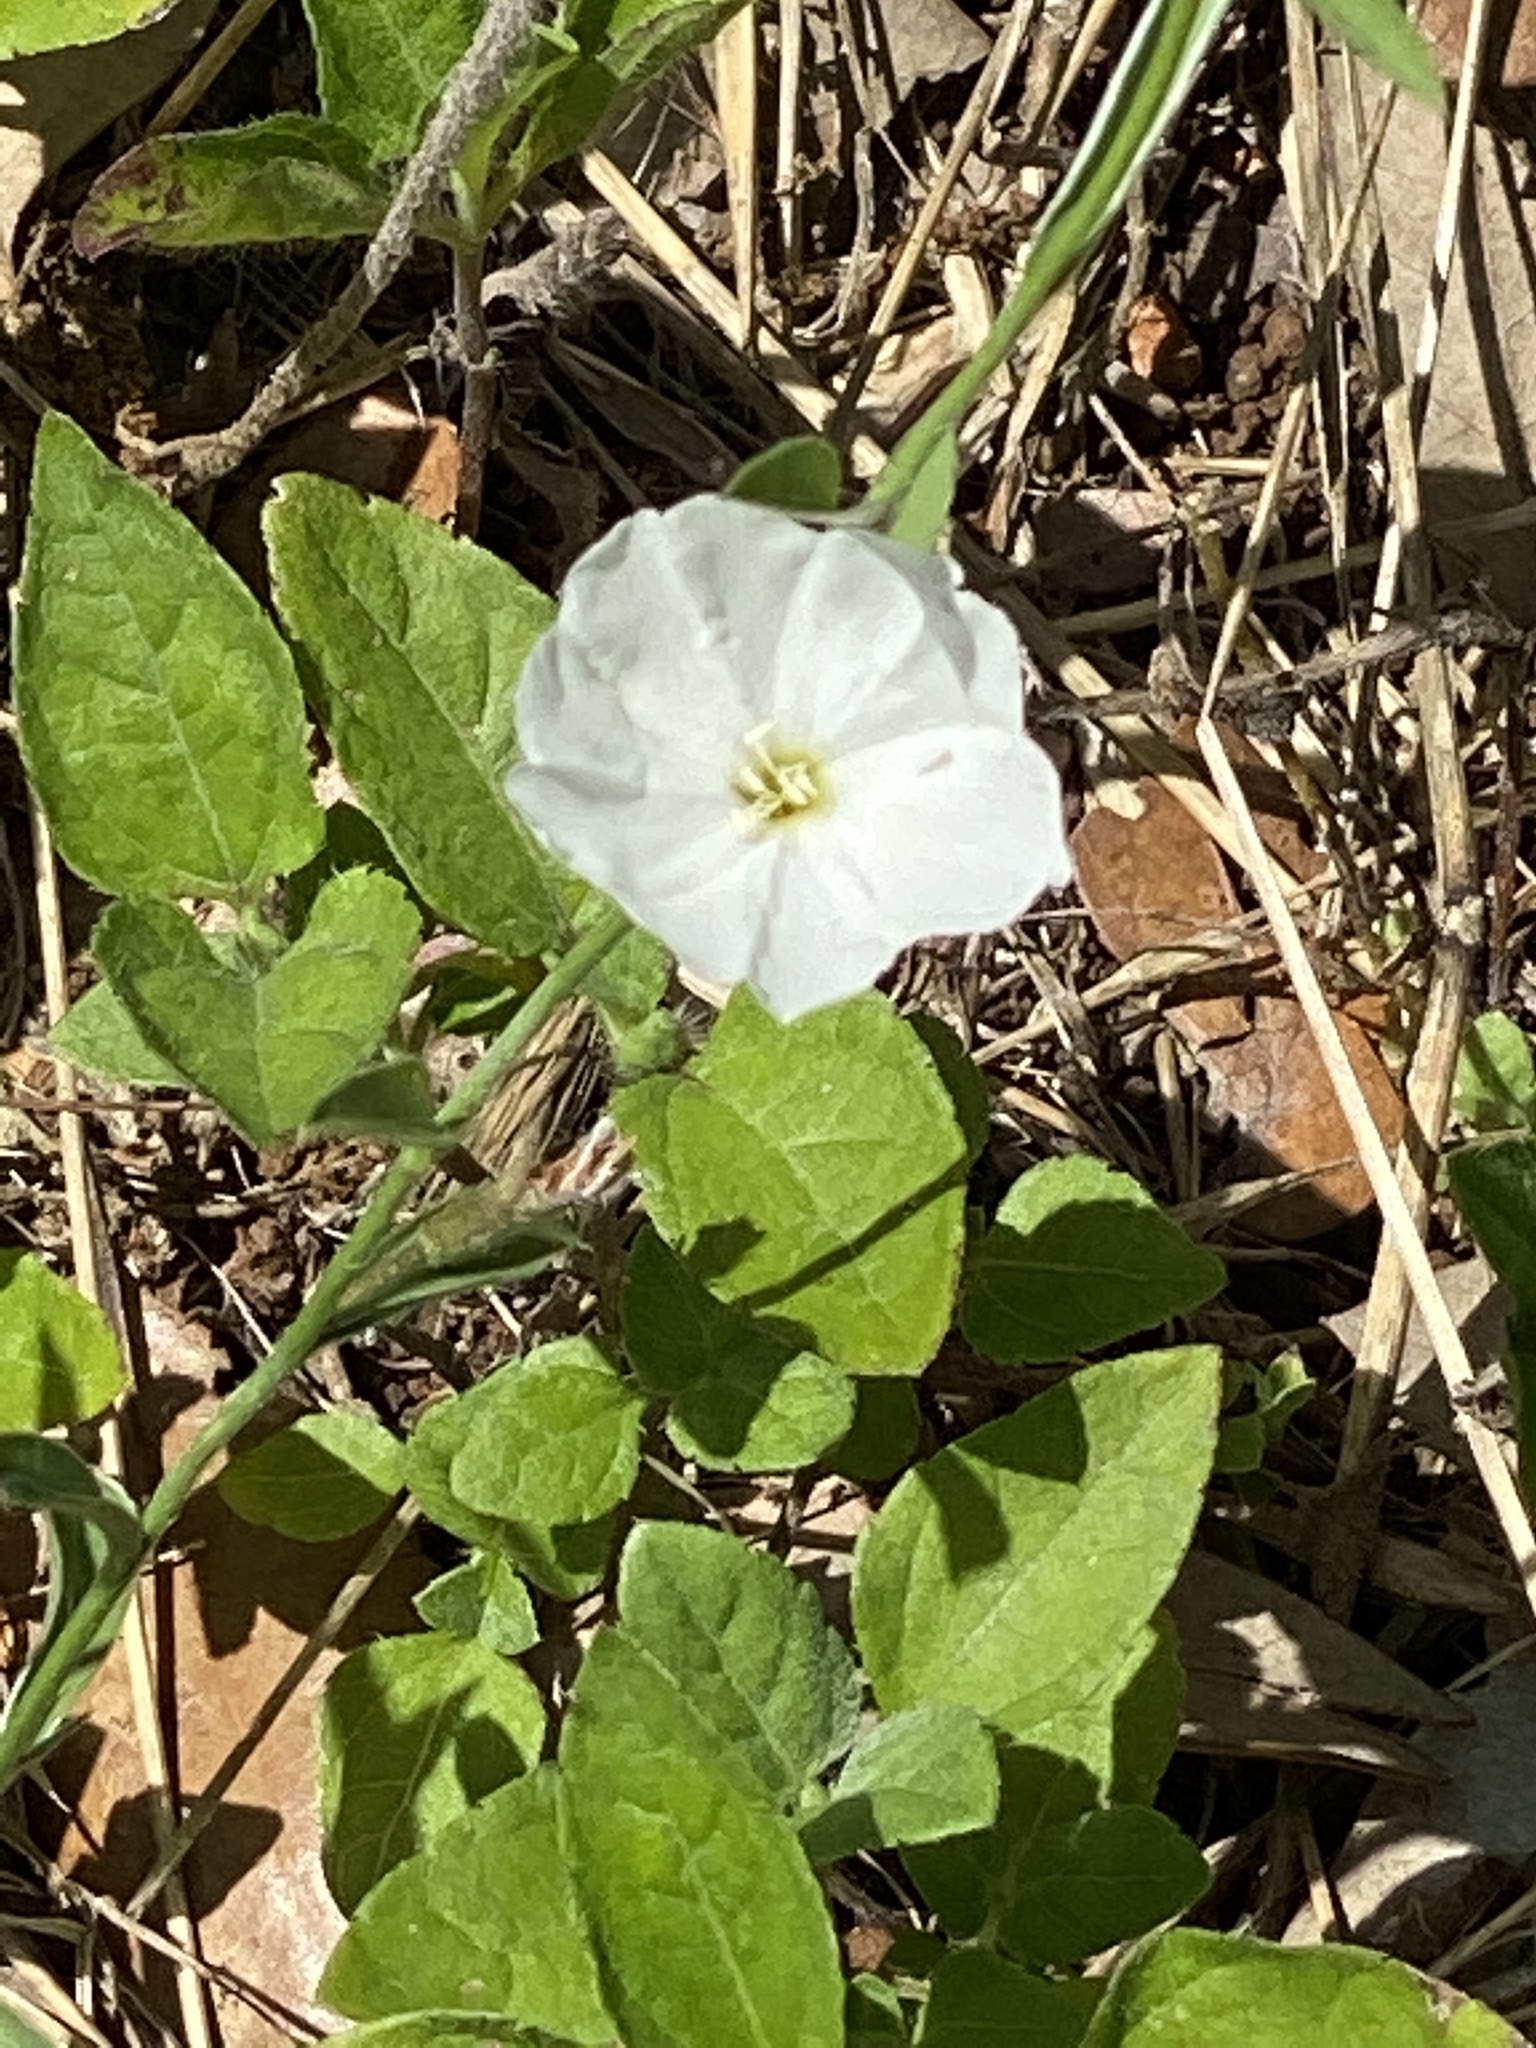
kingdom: Plantae
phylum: Tracheophyta
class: Magnoliopsida
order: Solanales
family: Convolvulaceae
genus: Evolvulus
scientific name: Evolvulus sericeus
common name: Blue dots
